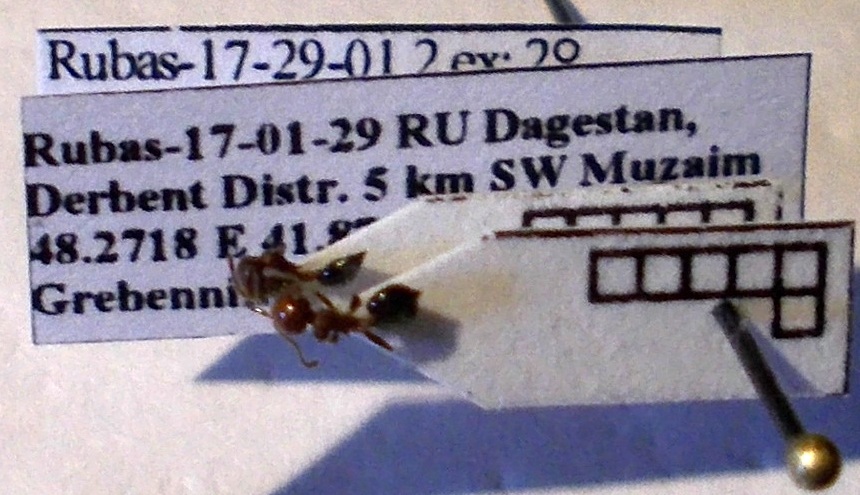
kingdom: Animalia
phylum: Arthropoda
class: Insecta
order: Hymenoptera
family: Formicidae
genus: Crematogaster
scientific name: Crematogaster schmidti
